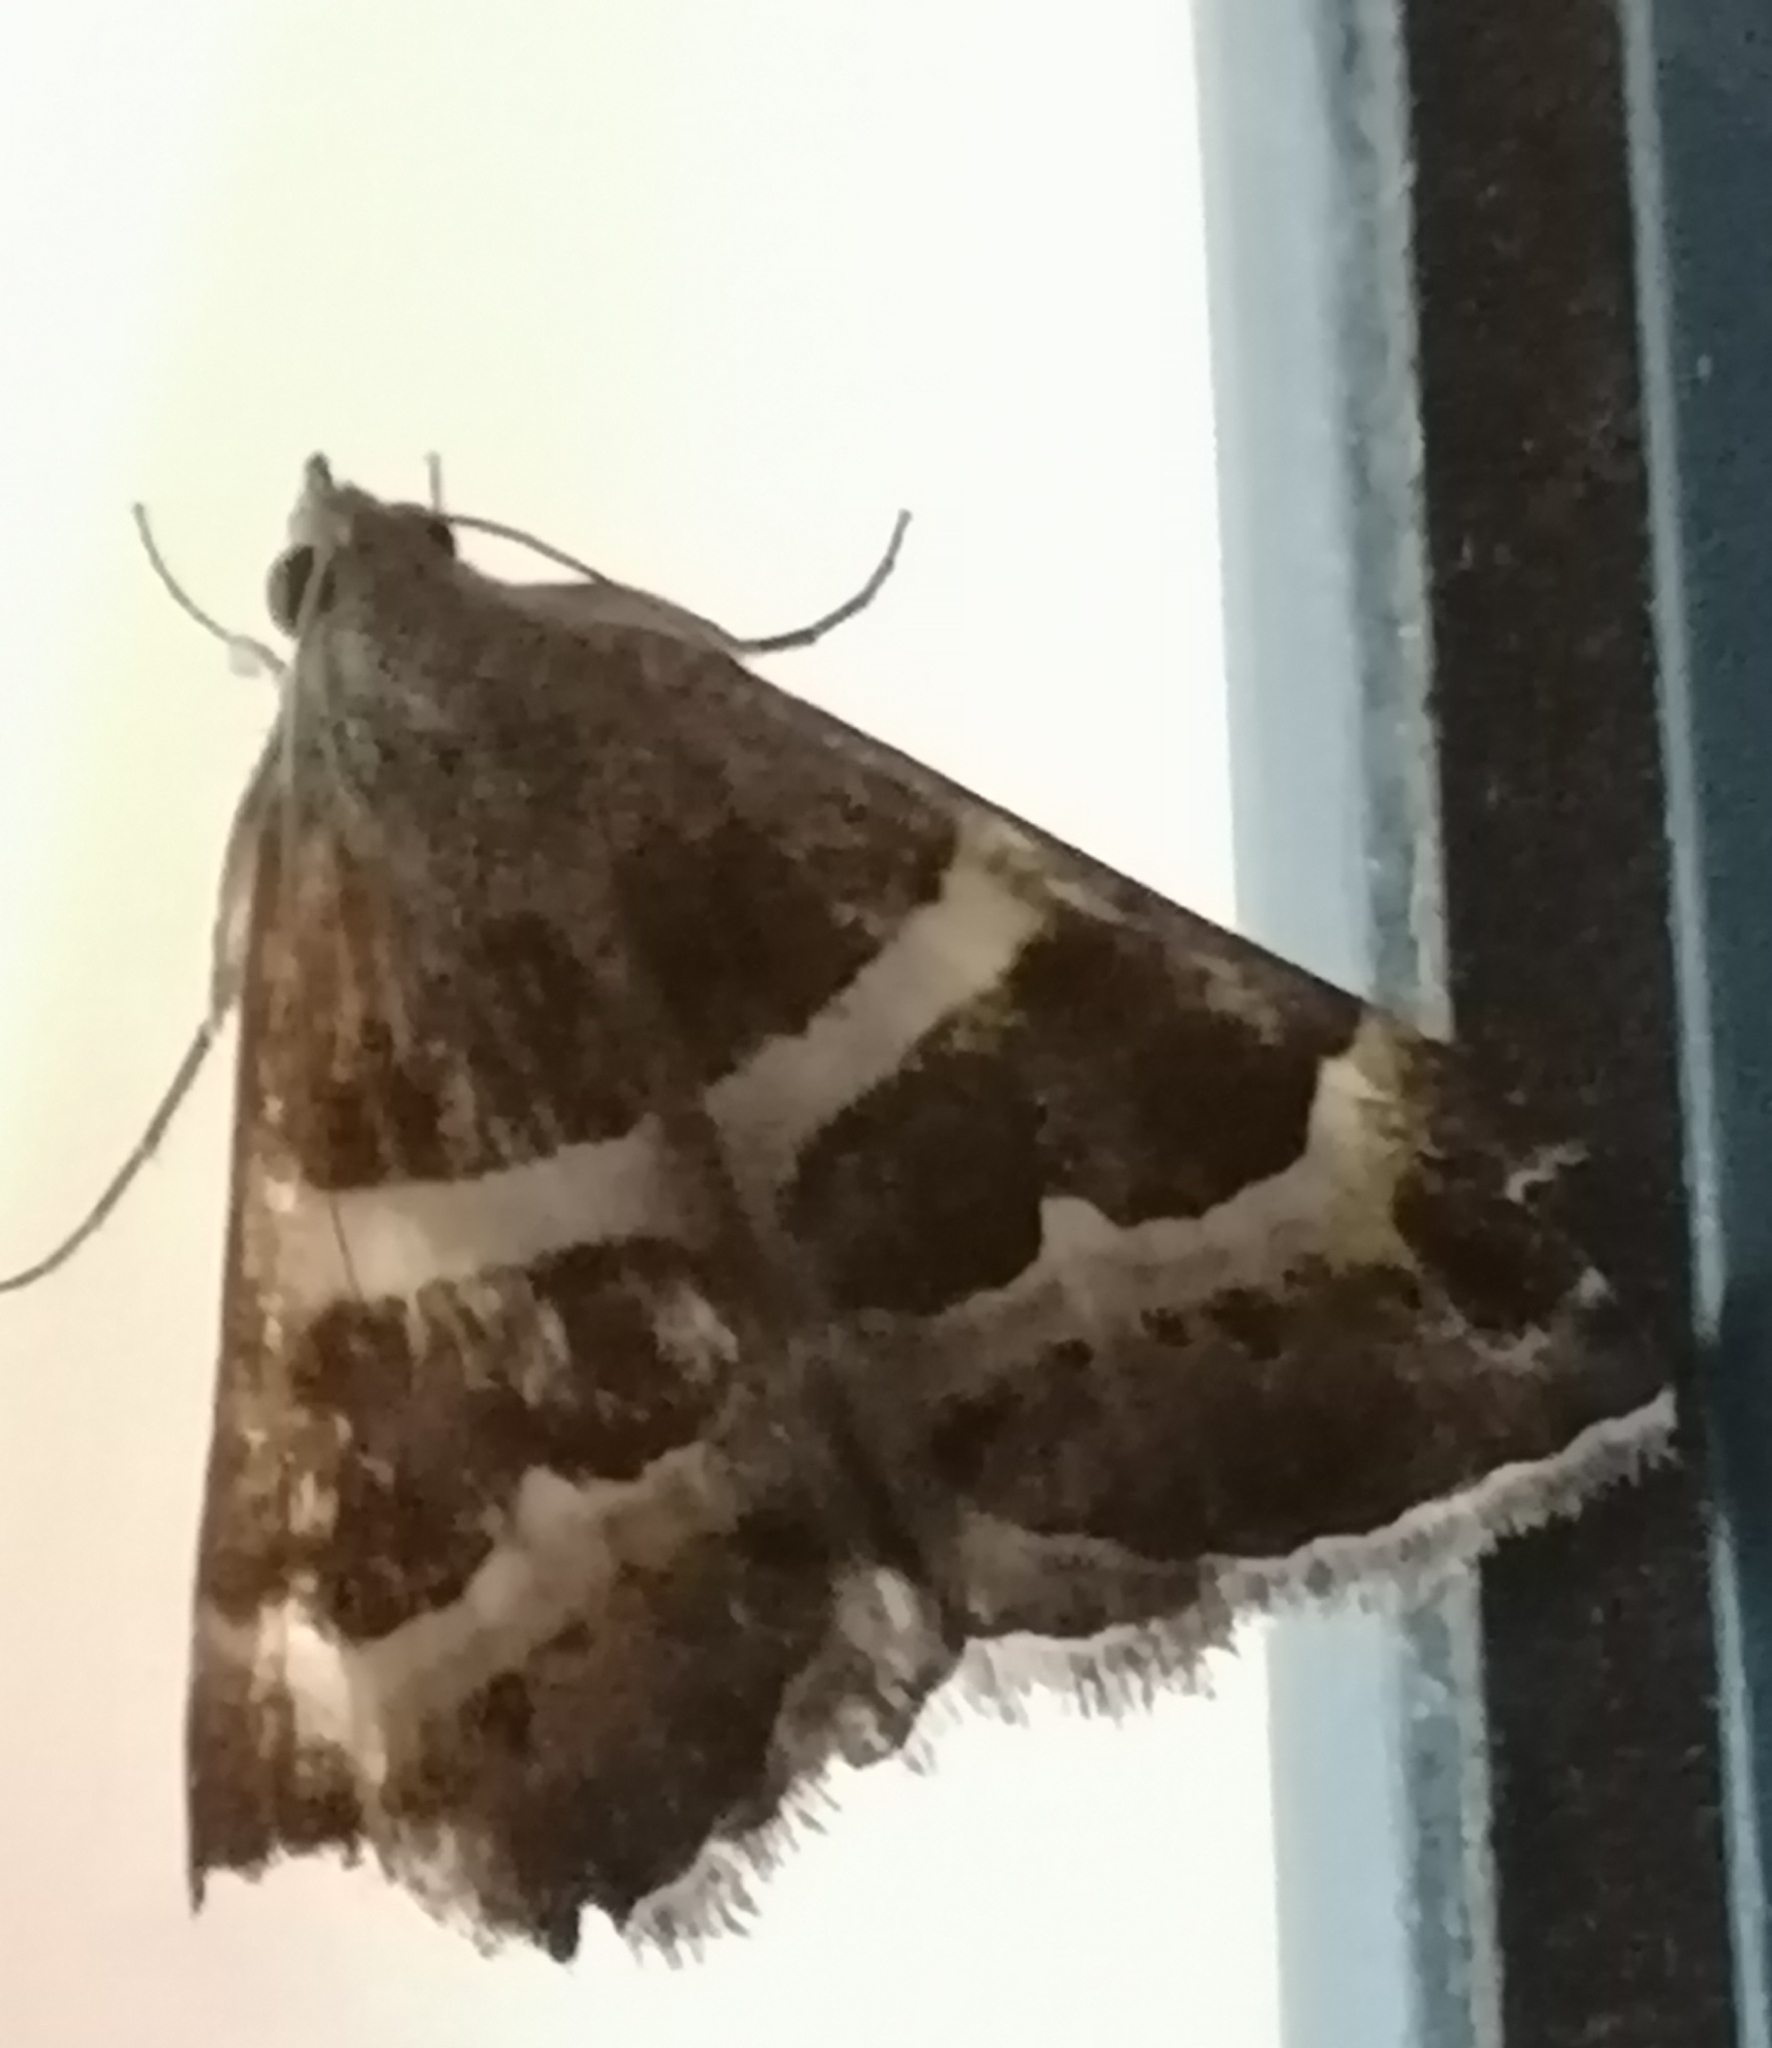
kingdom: Animalia
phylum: Arthropoda
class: Insecta
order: Lepidoptera
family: Erebidae
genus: Grammodes
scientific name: Grammodes stolida
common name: Geometrician
